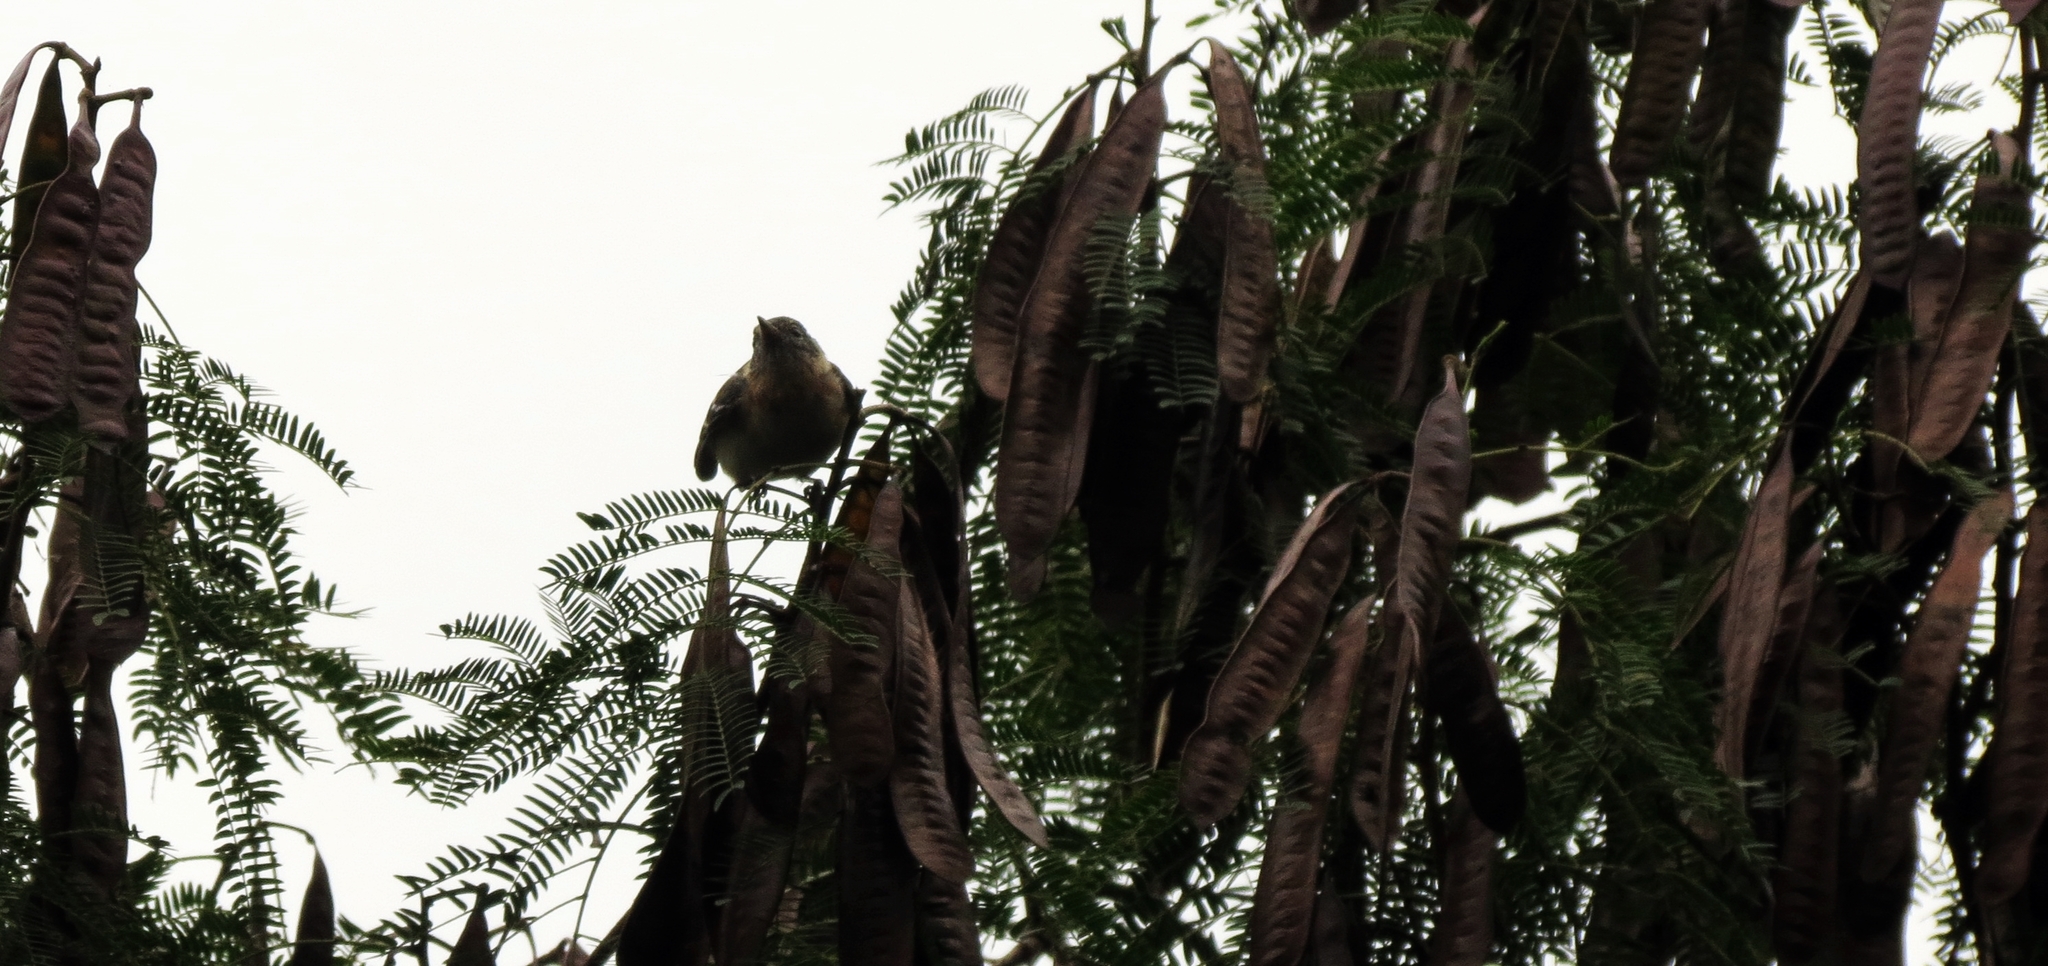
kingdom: Animalia
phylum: Chordata
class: Aves
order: Passeriformes
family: Parulidae
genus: Setophaga
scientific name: Setophaga castanea
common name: Bay-breasted warbler
